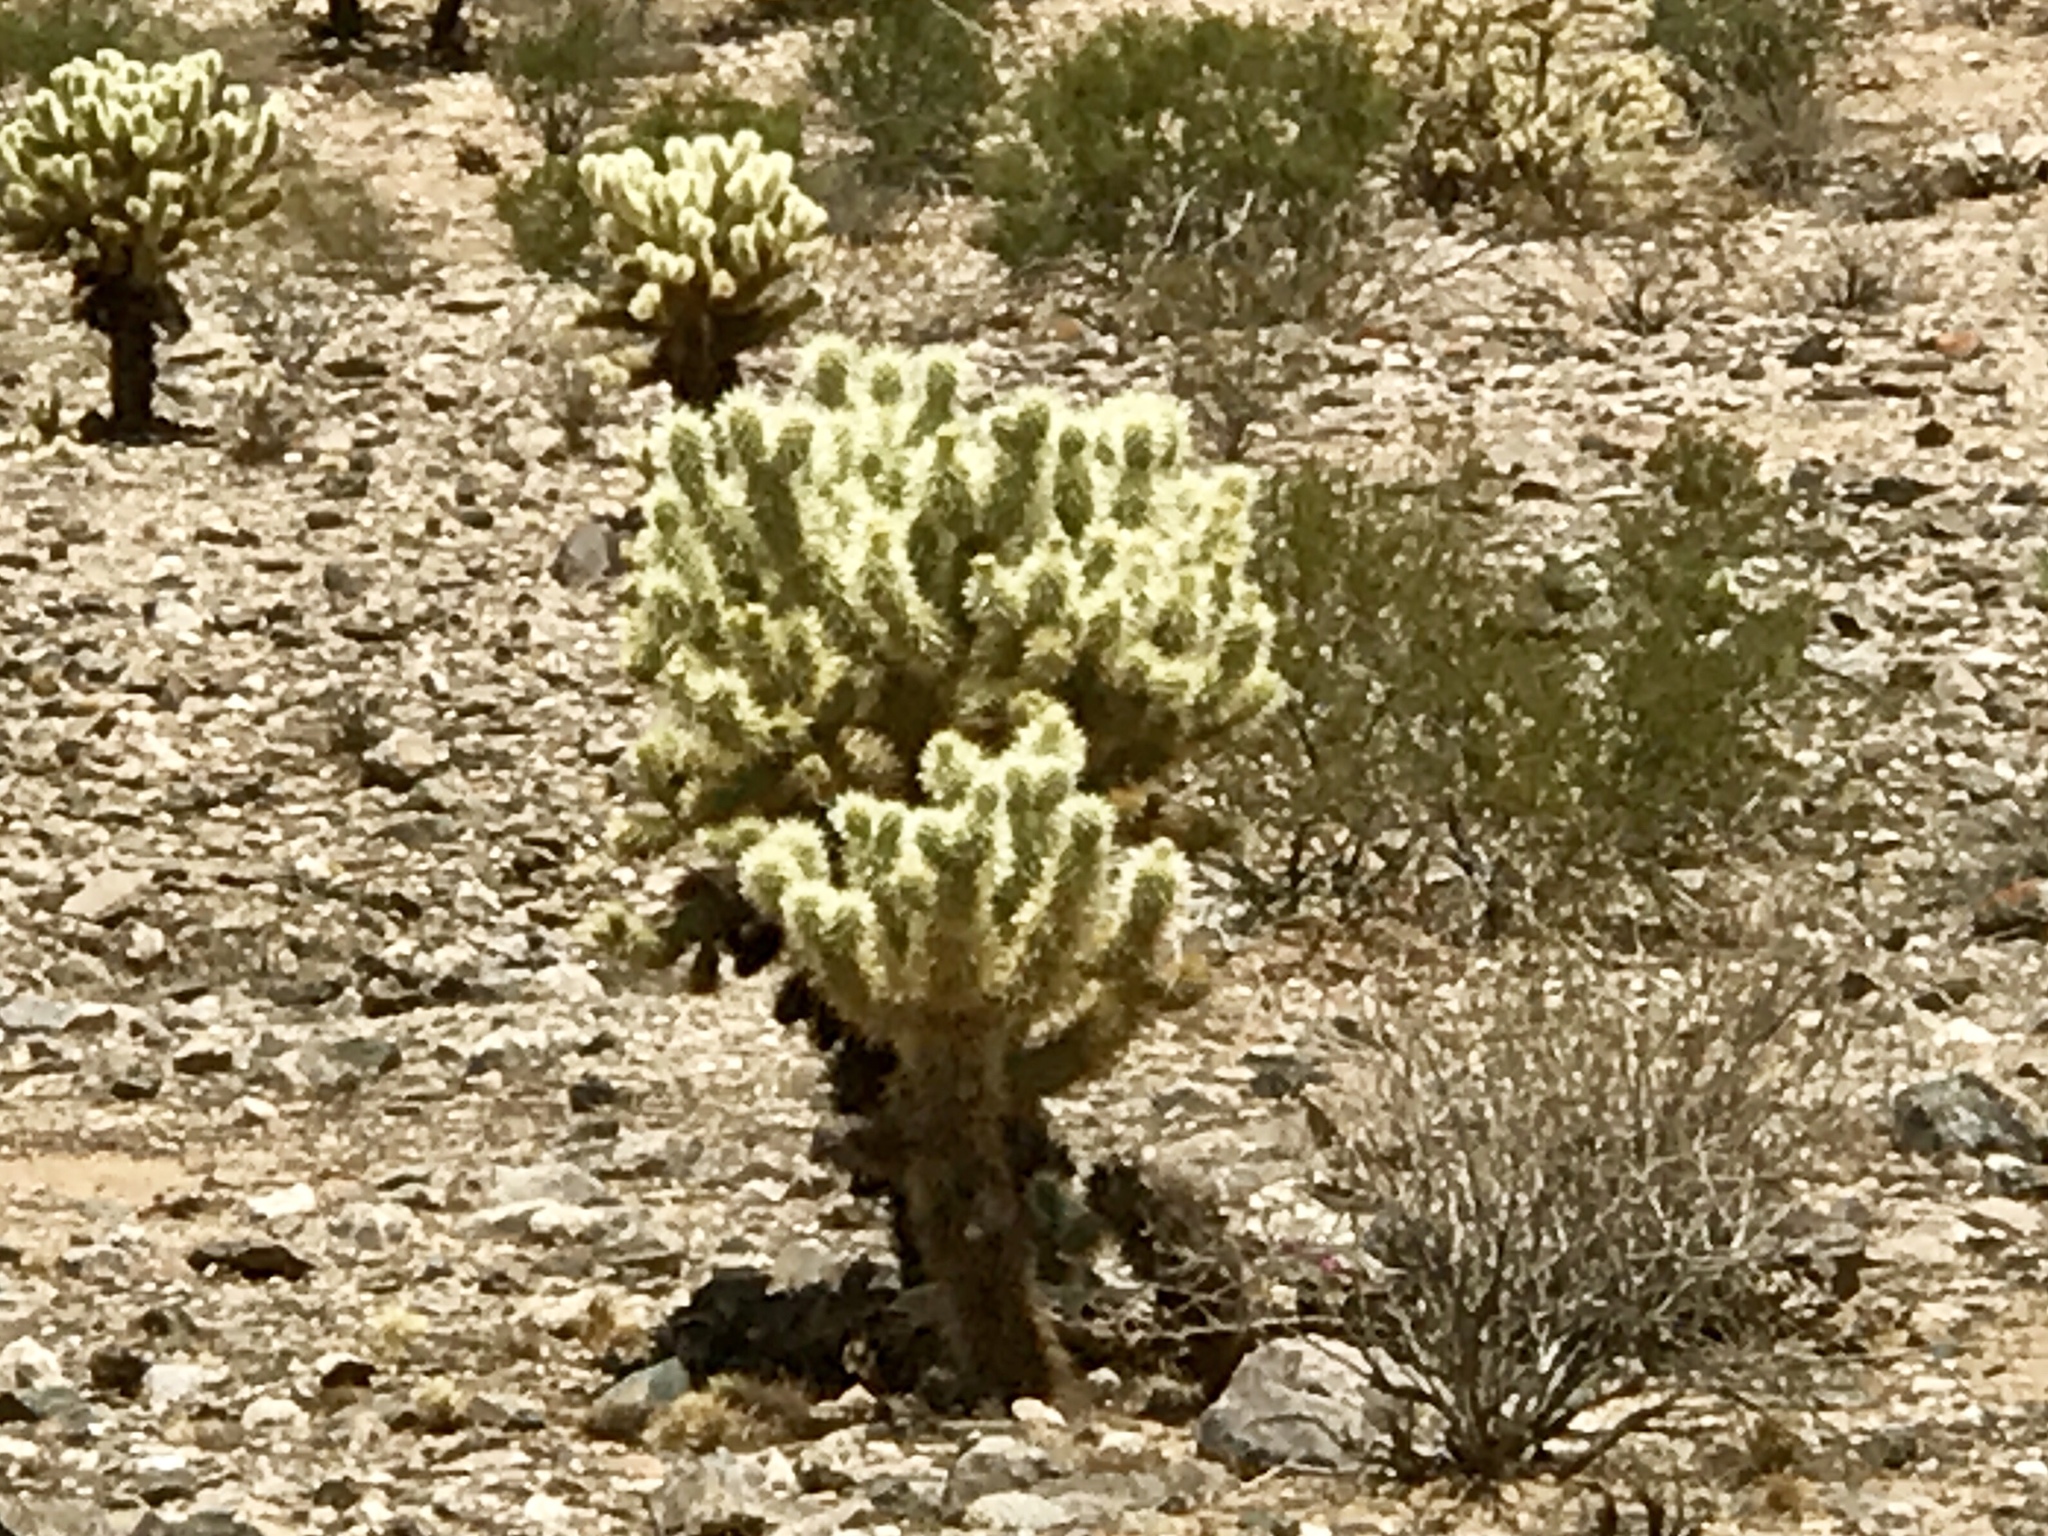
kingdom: Plantae
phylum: Tracheophyta
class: Magnoliopsida
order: Caryophyllales
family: Cactaceae
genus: Cylindropuntia
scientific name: Cylindropuntia fosbergii
